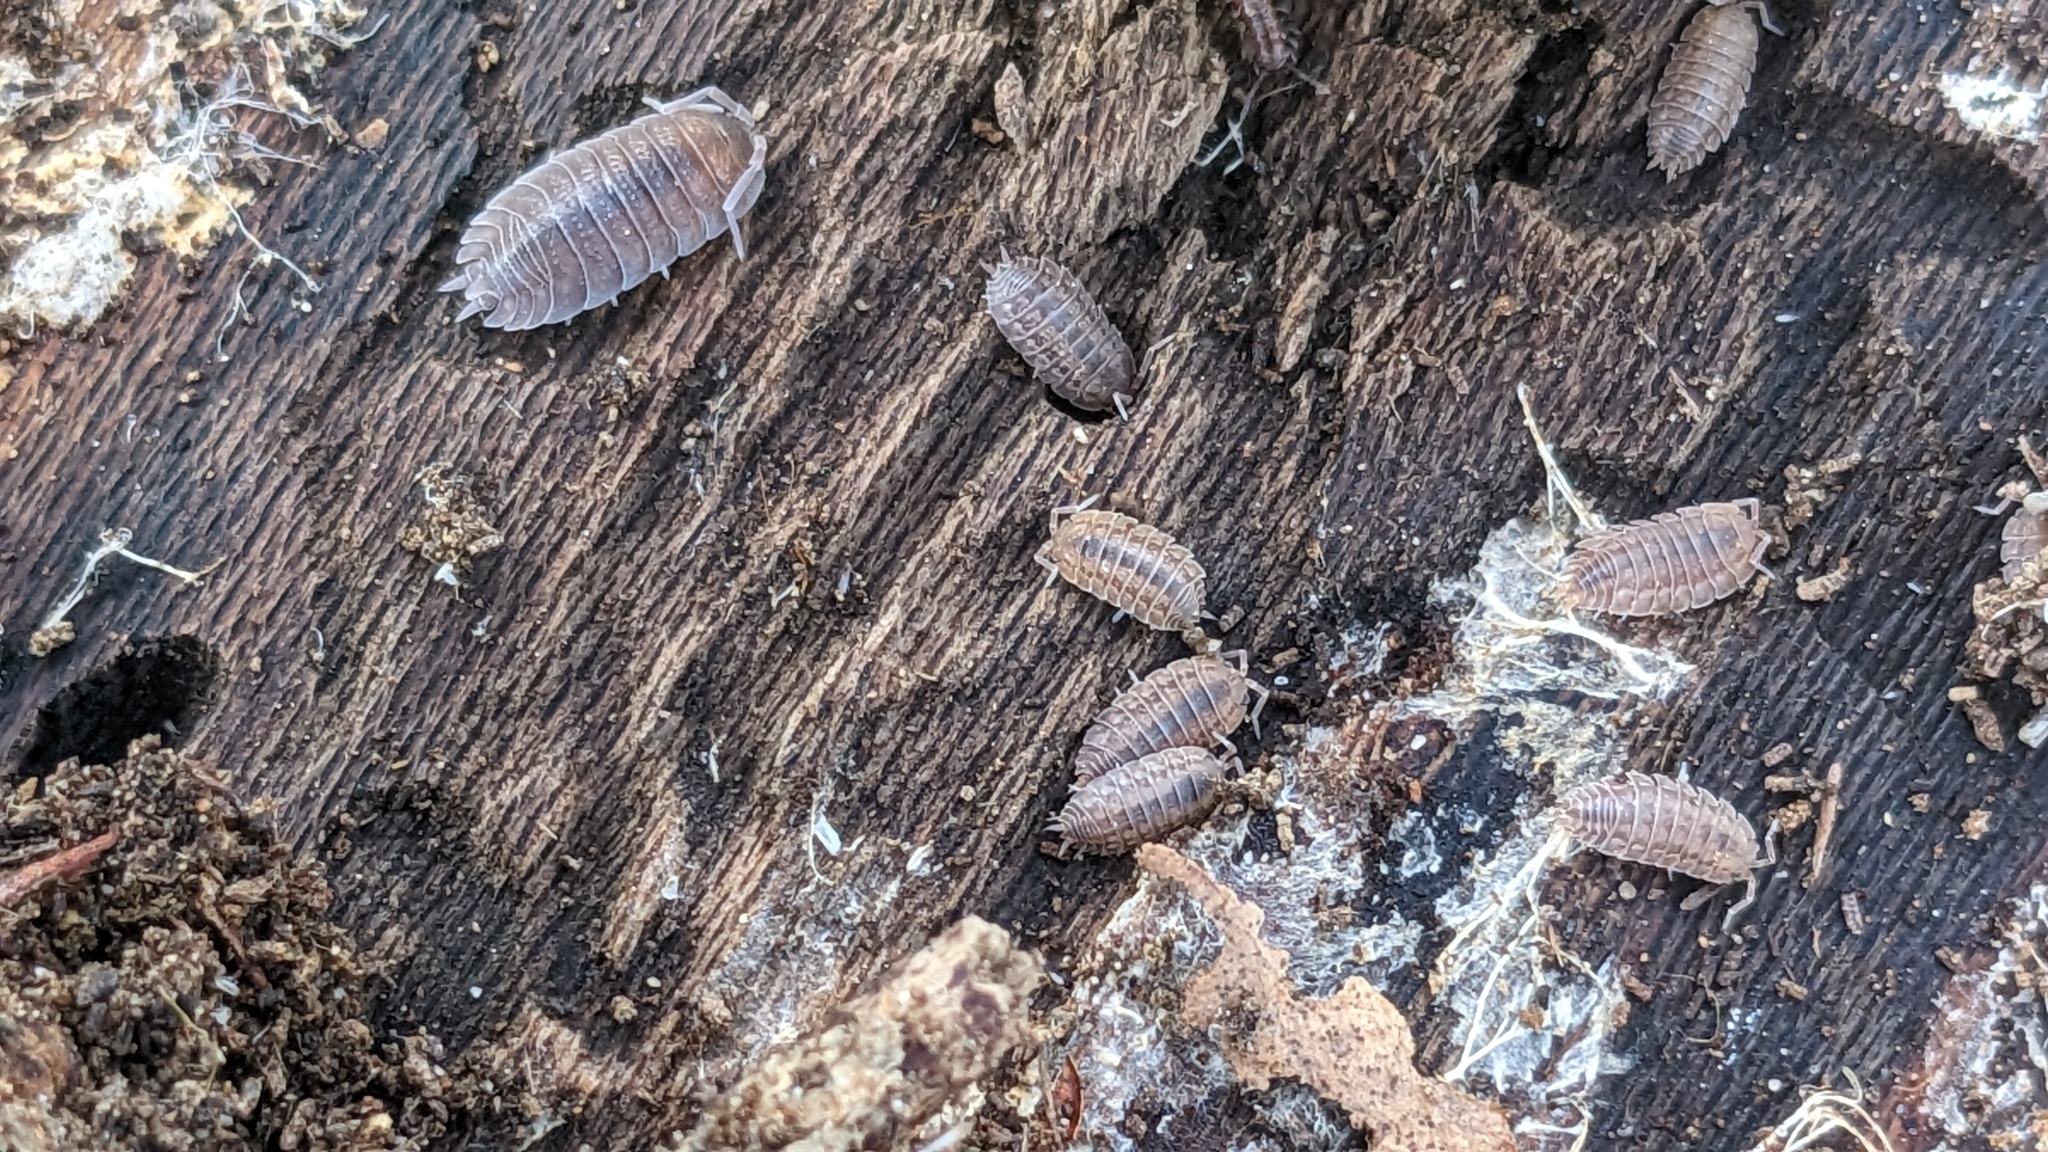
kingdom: Animalia
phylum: Arthropoda
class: Malacostraca
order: Isopoda
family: Porcellionidae
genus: Lucasius
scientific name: Lucasius pallidus
